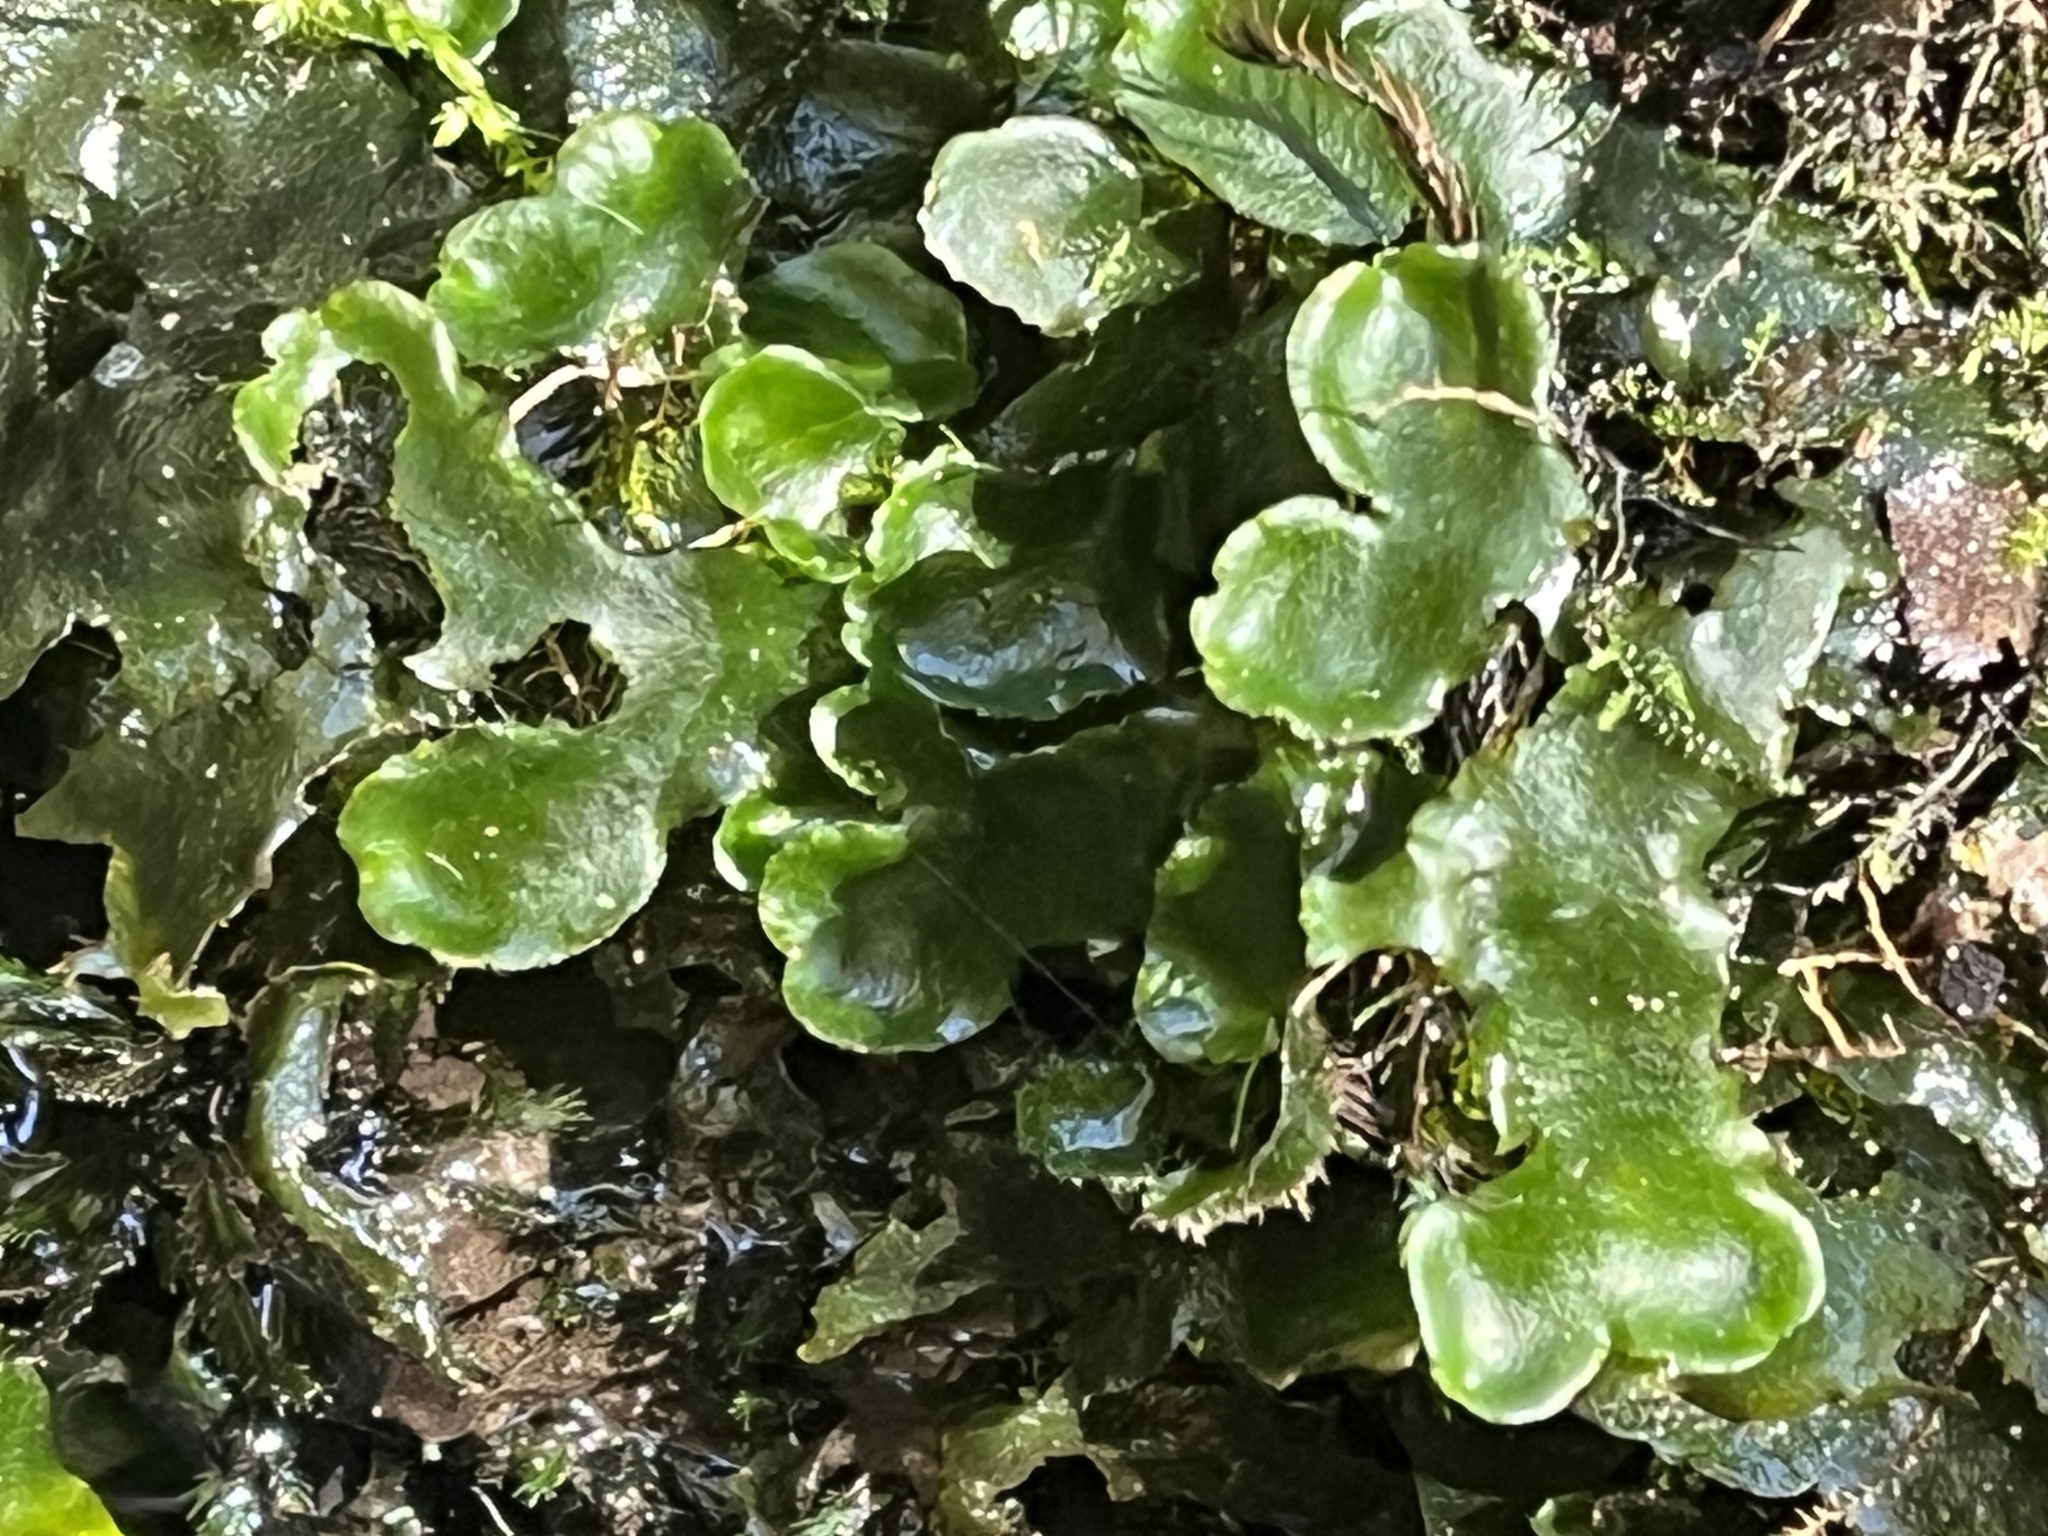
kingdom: Plantae
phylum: Marchantiophyta
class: Marchantiopsida
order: Marchantiales
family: Dumortieraceae
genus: Dumortiera
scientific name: Dumortiera hirsuta
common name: Dumortier's liverwort
